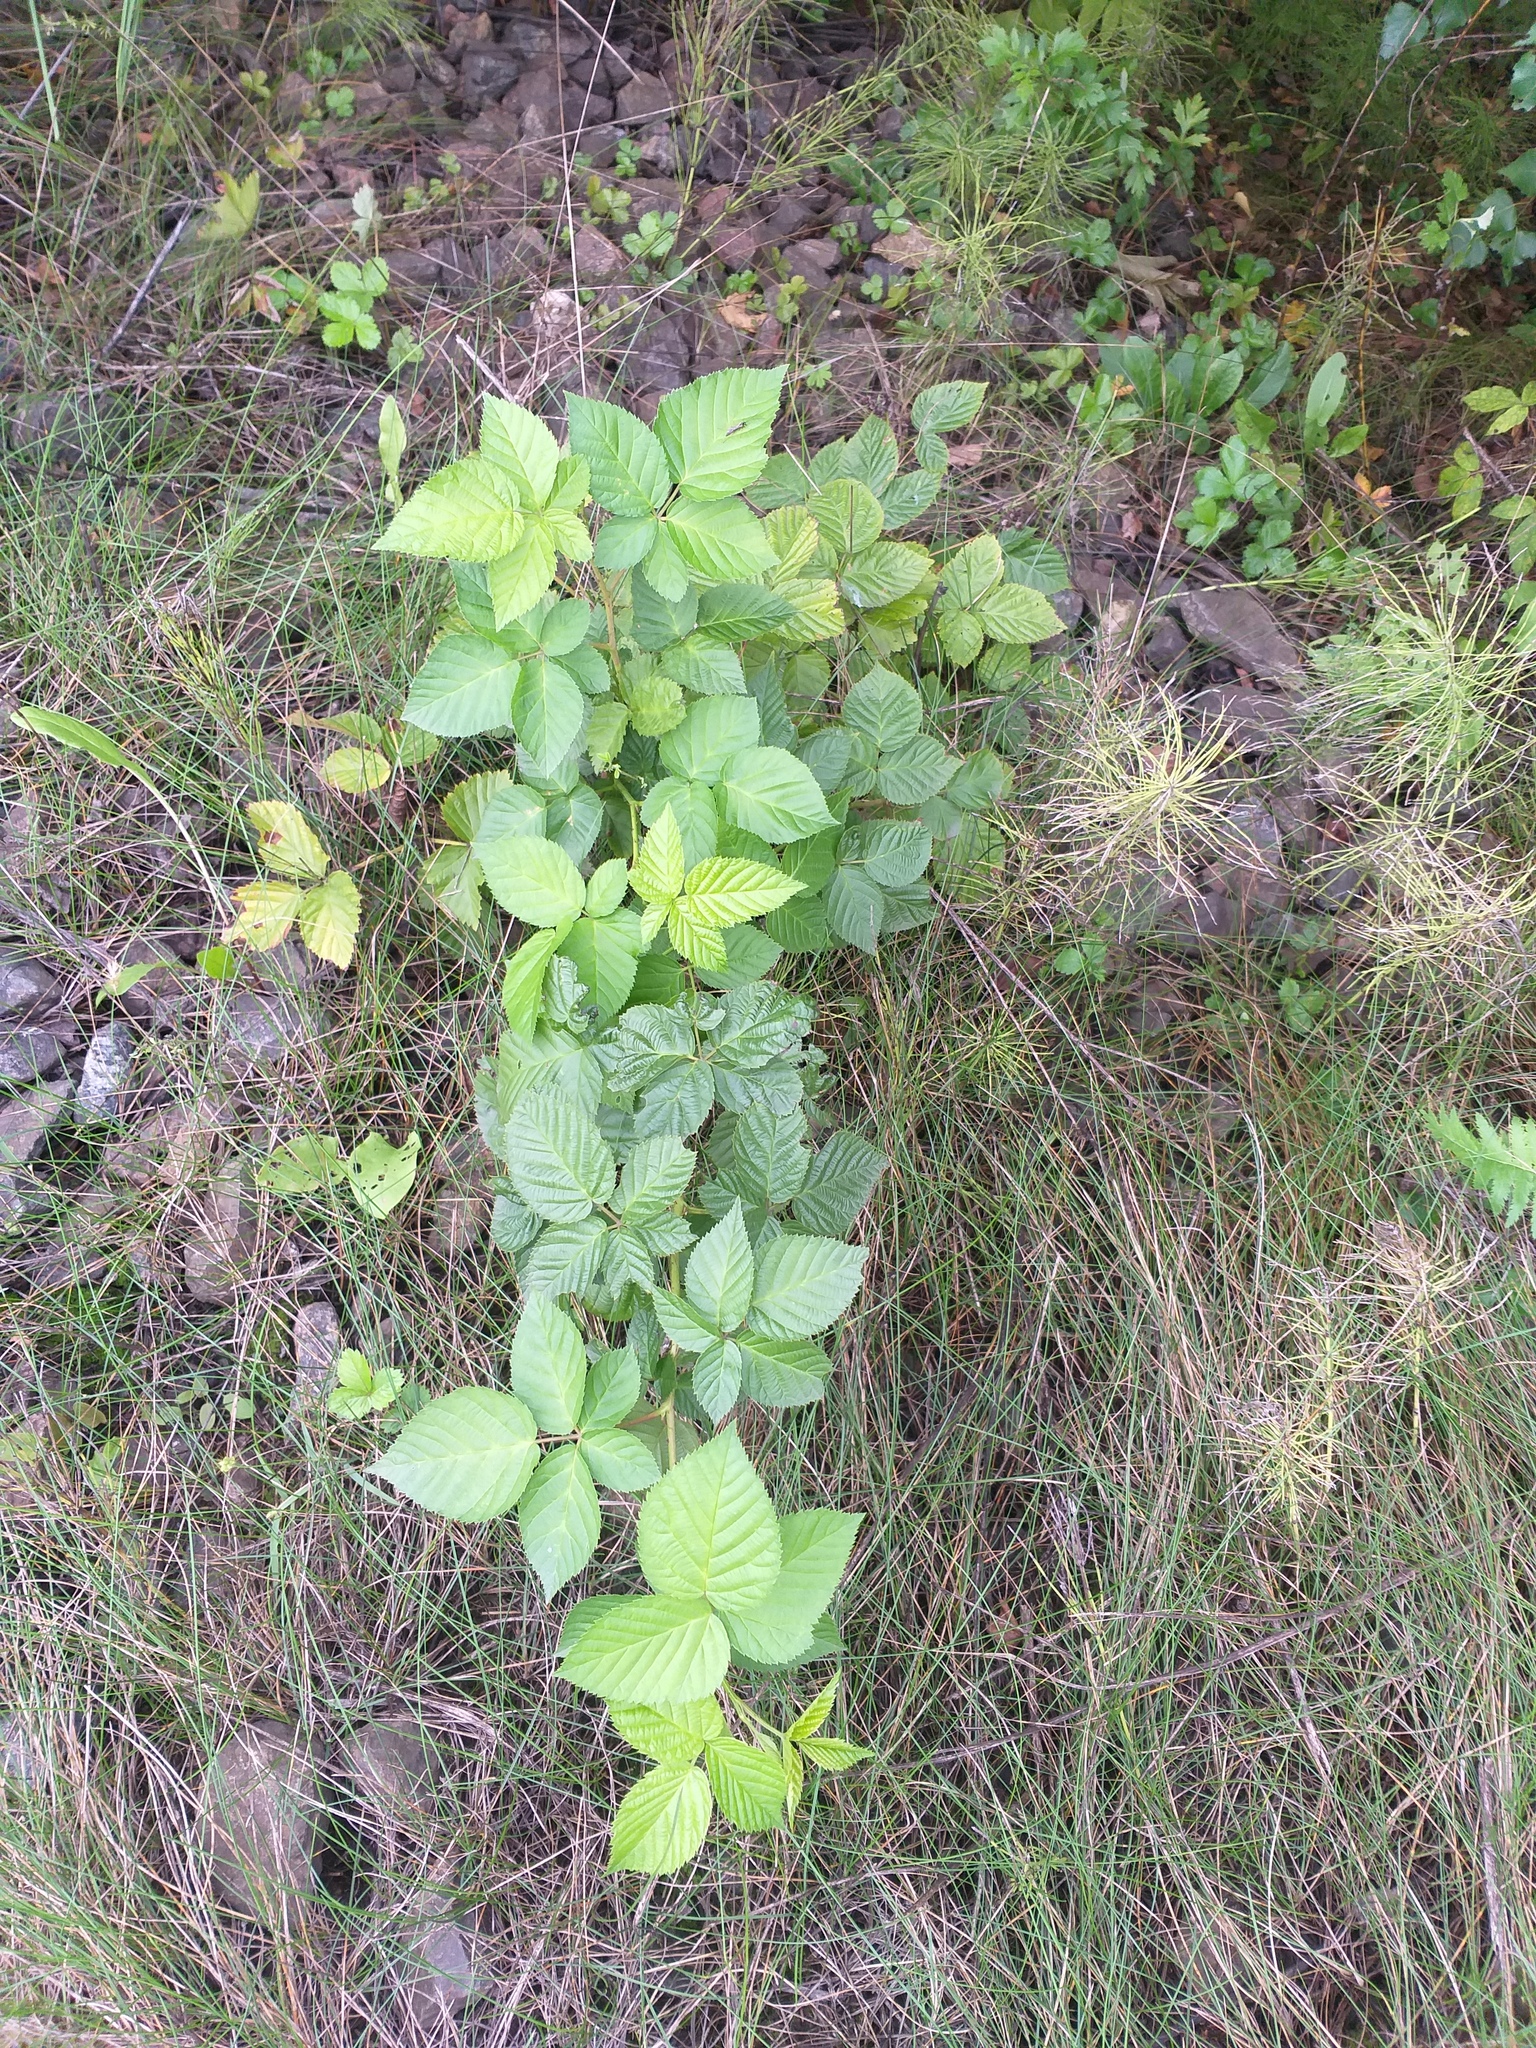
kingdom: Plantae
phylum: Tracheophyta
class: Magnoliopsida
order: Rosales
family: Rosaceae
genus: Rubus
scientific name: Rubus polonicus
